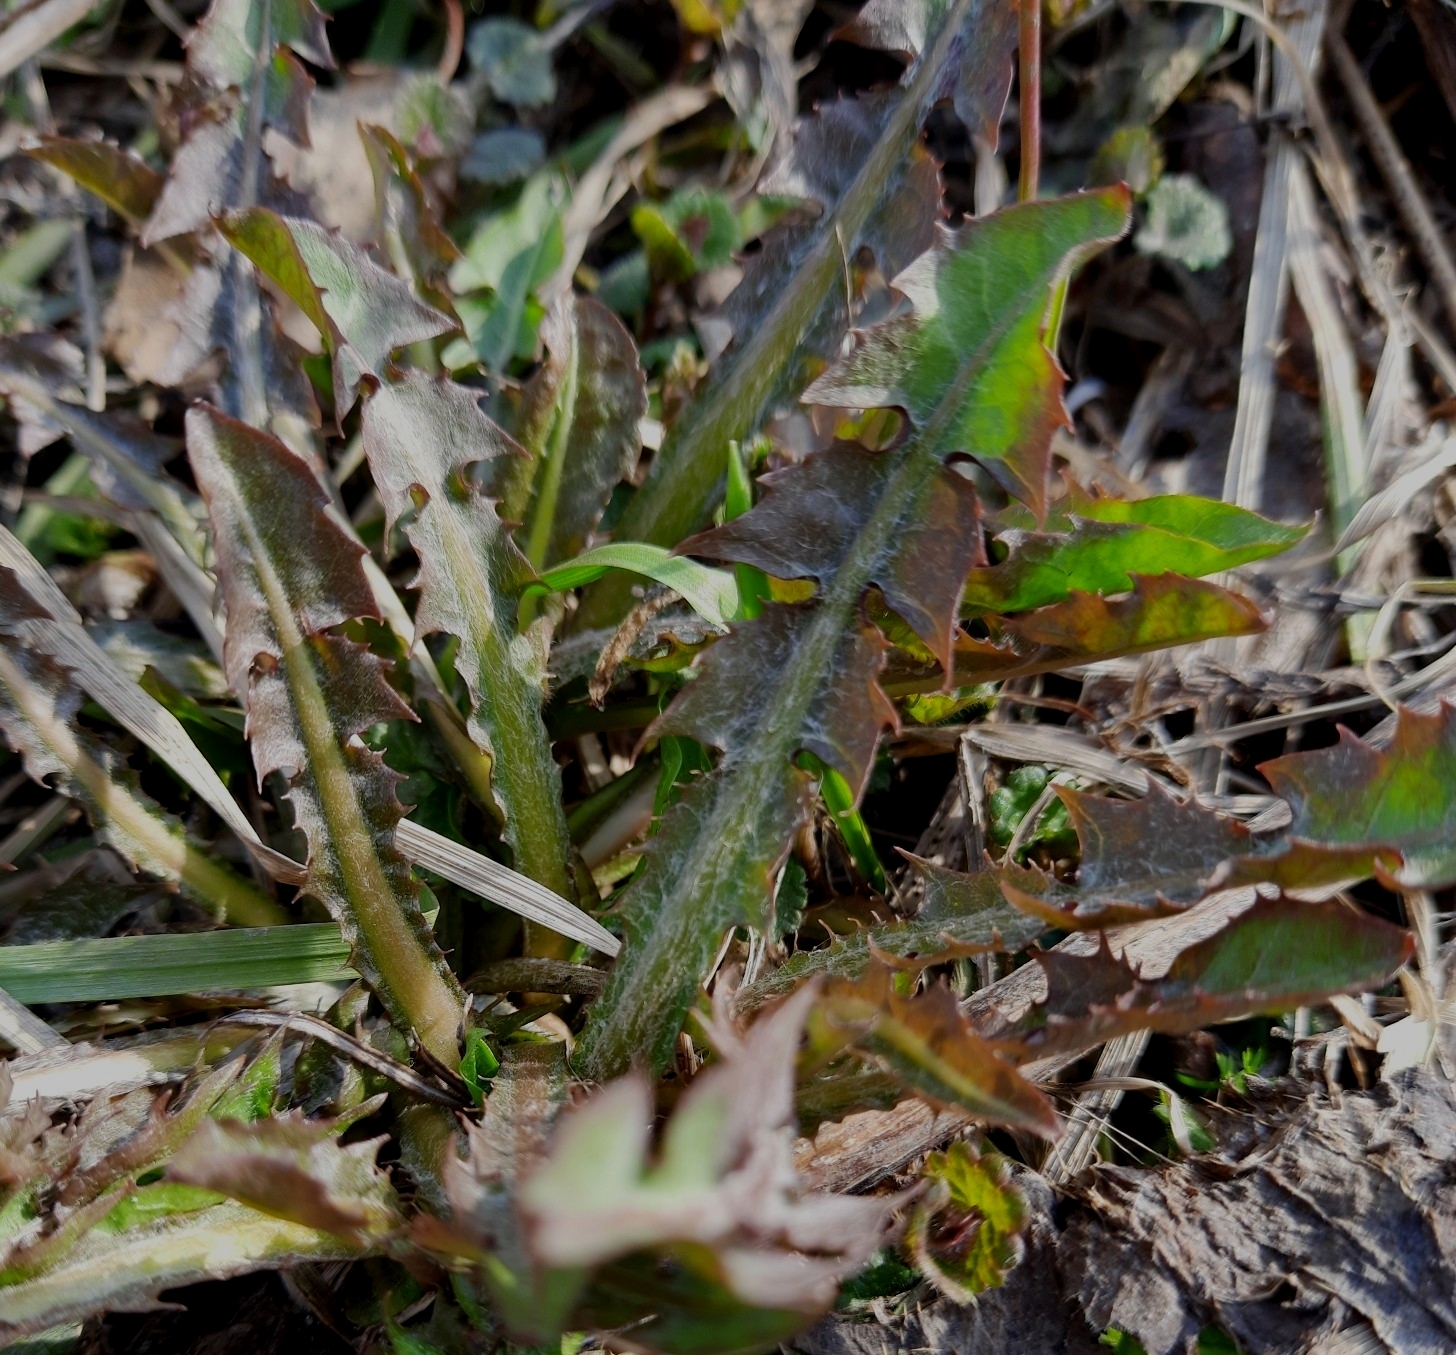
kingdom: Plantae
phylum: Tracheophyta
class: Magnoliopsida
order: Asterales
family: Asteraceae
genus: Taraxacum
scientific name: Taraxacum officinale
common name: Common dandelion
